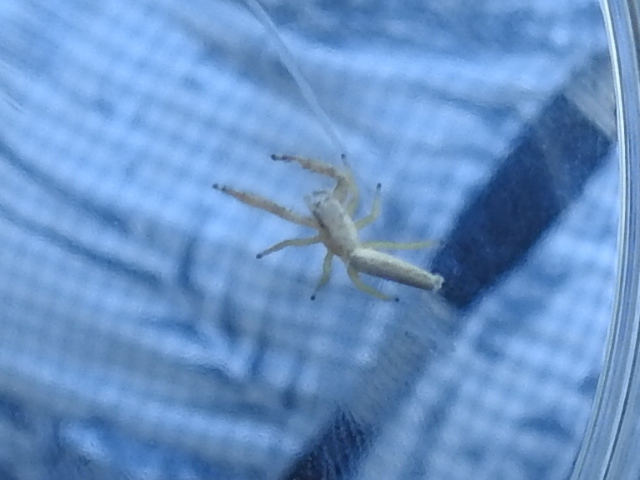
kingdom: Animalia
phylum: Arthropoda
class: Arachnida
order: Araneae
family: Salticidae
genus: Marpissa
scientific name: Marpissa pikei
